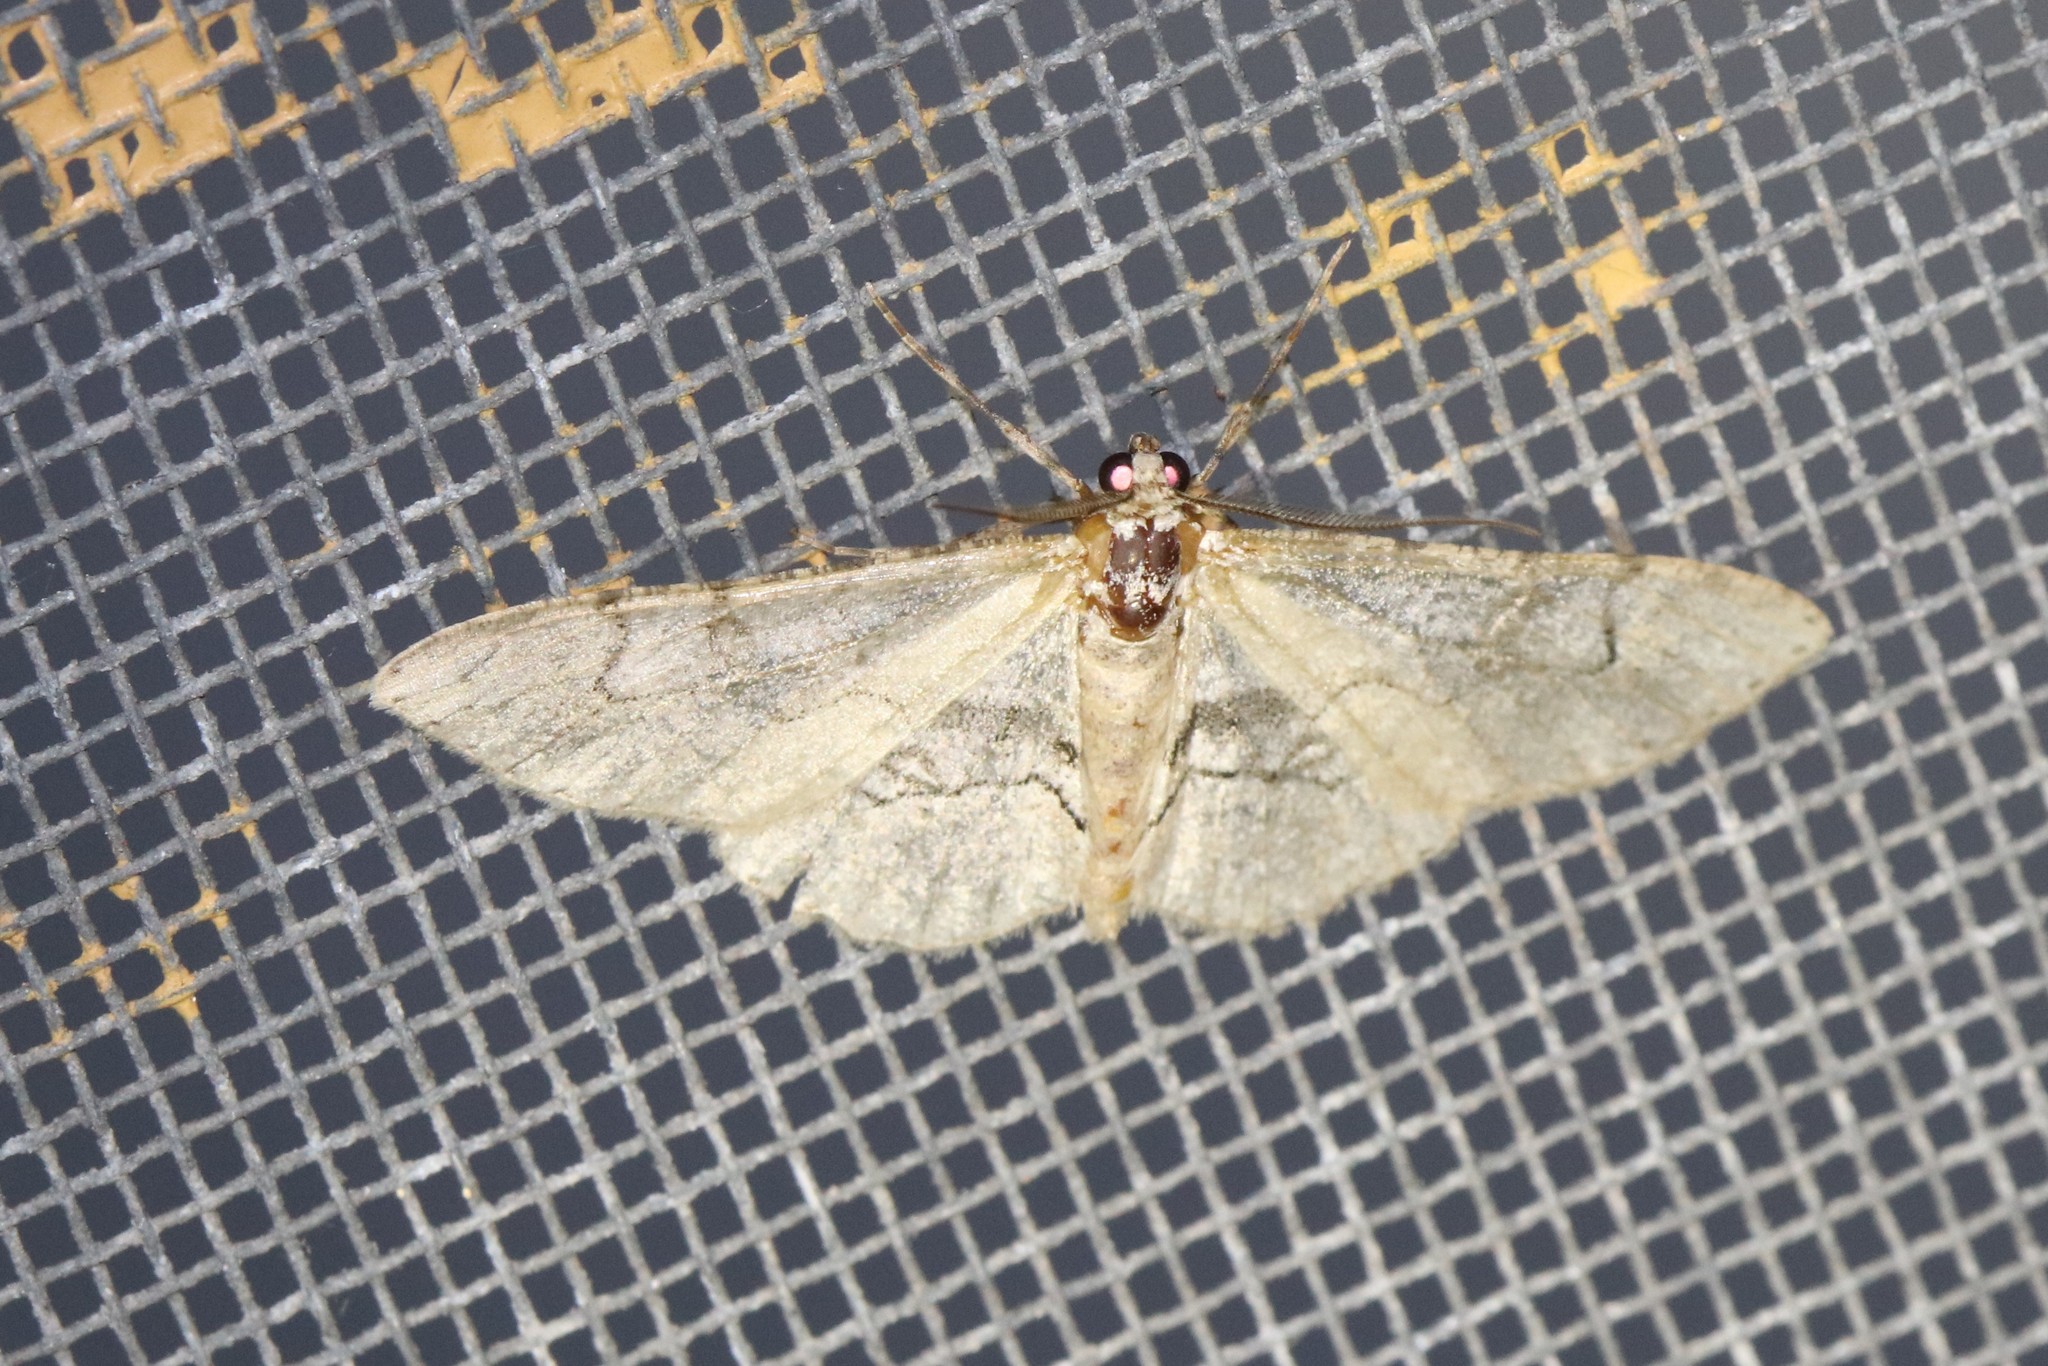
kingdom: Animalia
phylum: Arthropoda
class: Insecta
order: Lepidoptera
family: Geometridae
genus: Iridopsis
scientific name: Iridopsis larvaria
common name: Bent-line gray
